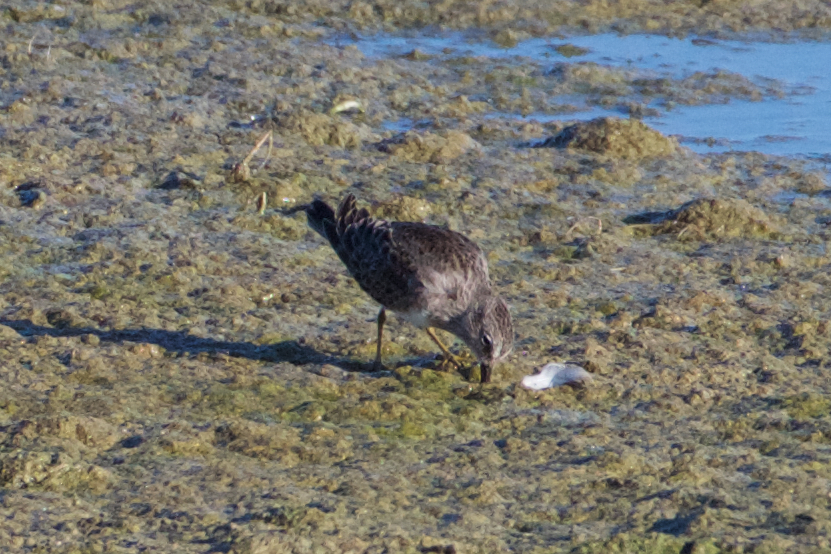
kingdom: Animalia
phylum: Chordata
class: Aves
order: Charadriiformes
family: Scolopacidae
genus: Calidris
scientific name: Calidris minutilla
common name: Least sandpiper
